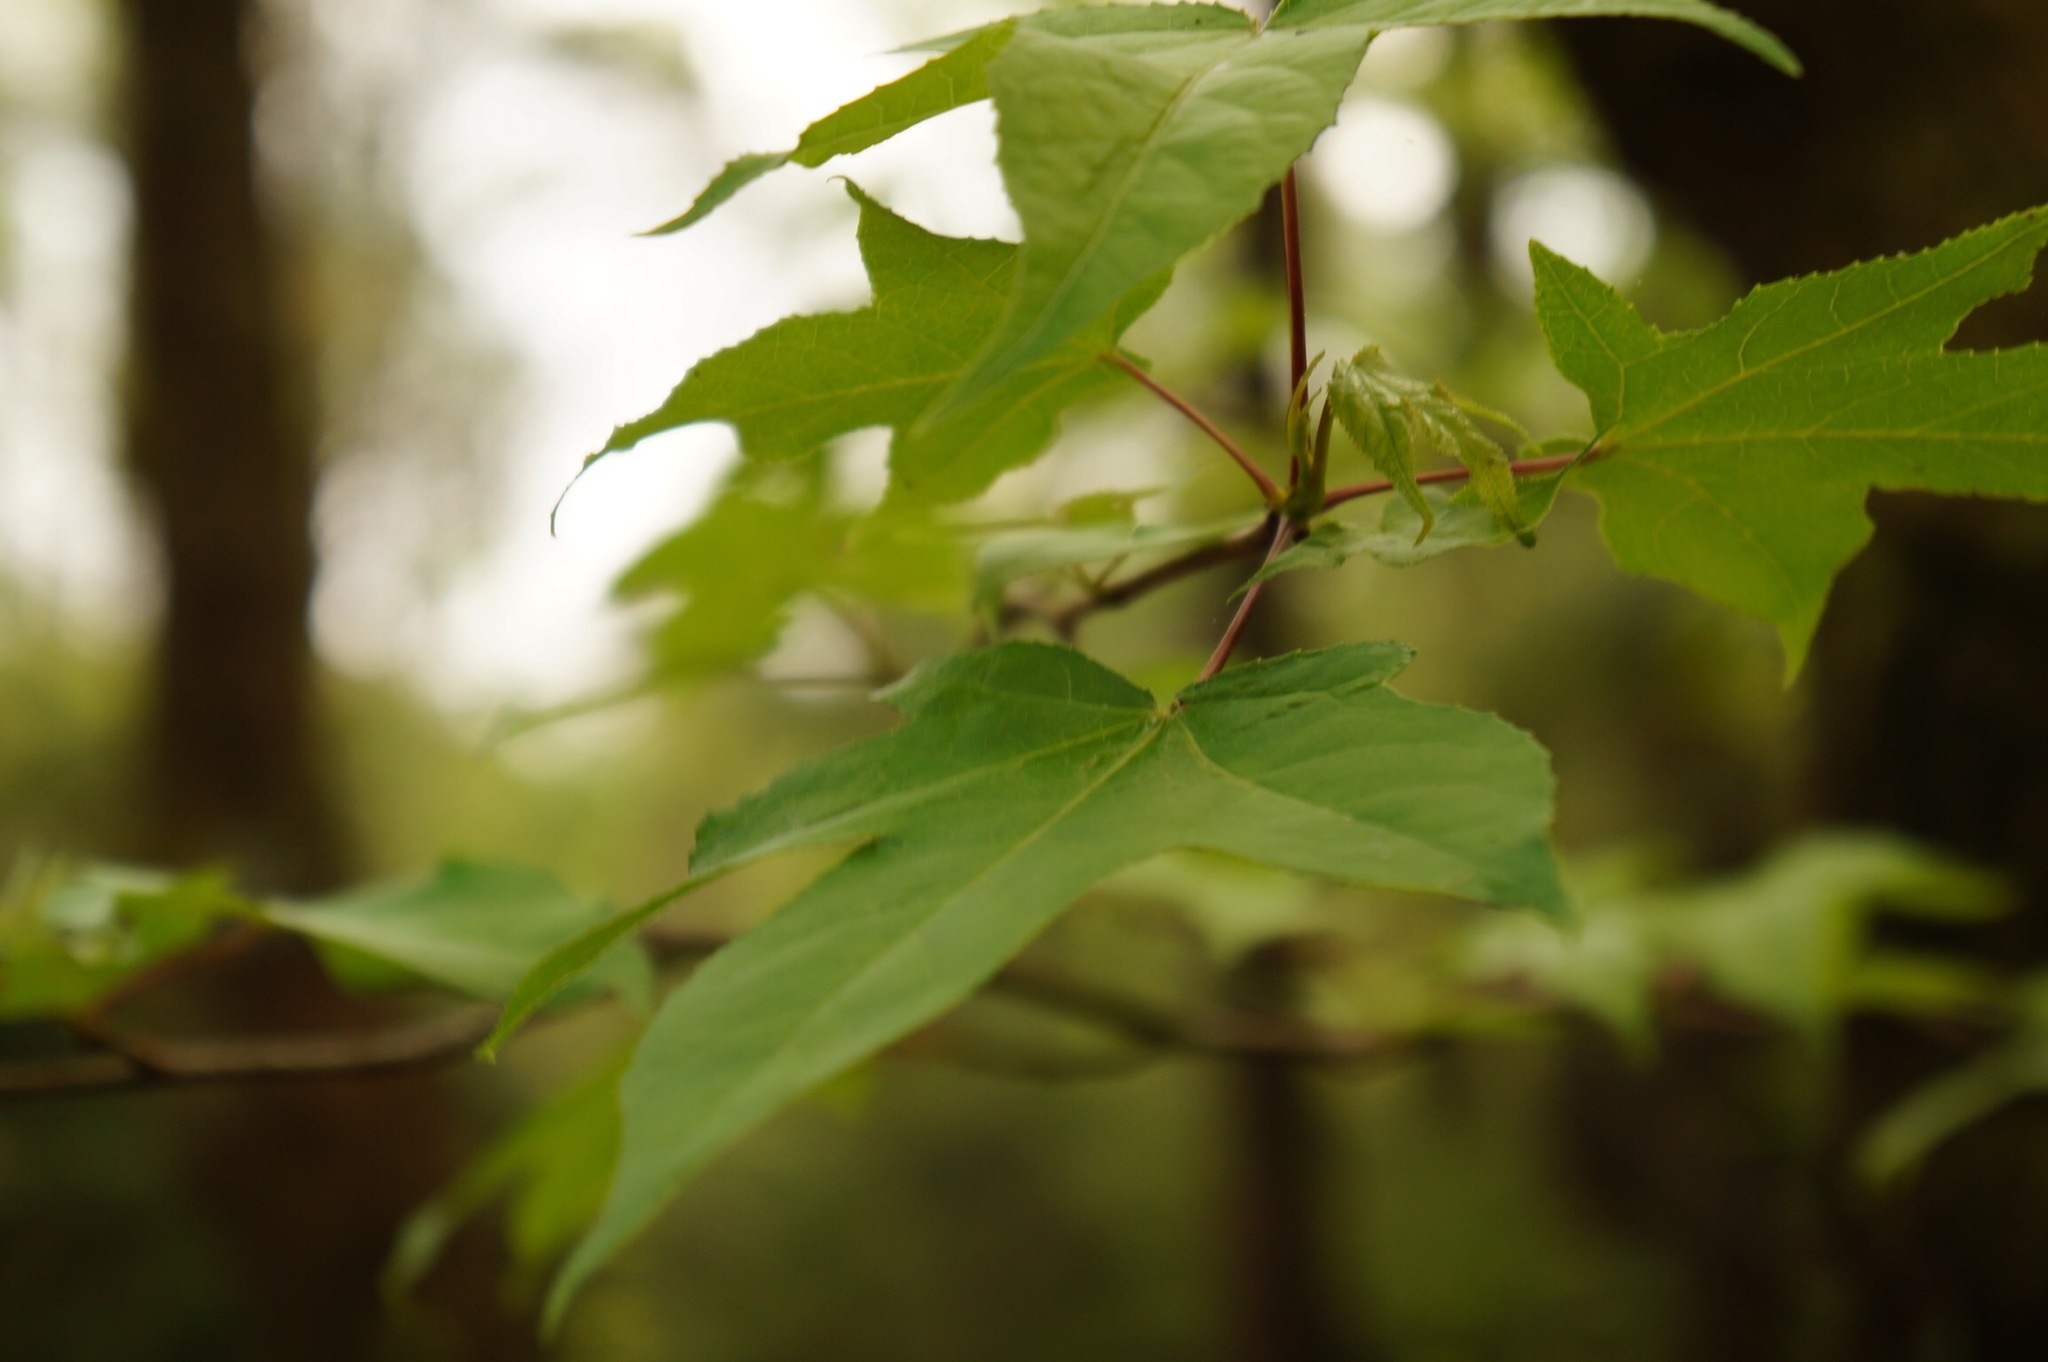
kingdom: Plantae
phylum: Tracheophyta
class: Magnoliopsida
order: Saxifragales
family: Altingiaceae
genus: Liquidambar
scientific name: Liquidambar styraciflua
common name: Sweet gum
